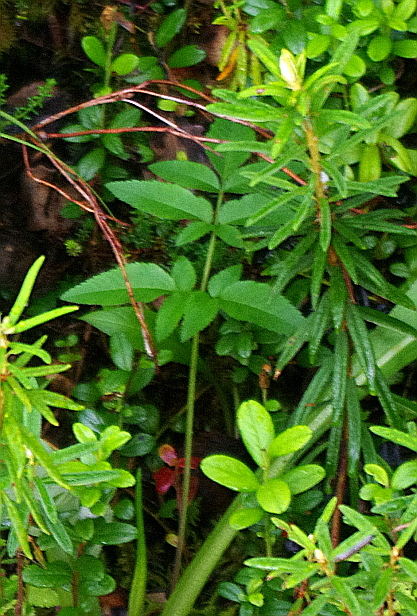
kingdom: Plantae
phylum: Tracheophyta
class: Magnoliopsida
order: Apiales
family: Apiaceae
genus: Angelica
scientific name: Angelica sylvestris
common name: Wild angelica
